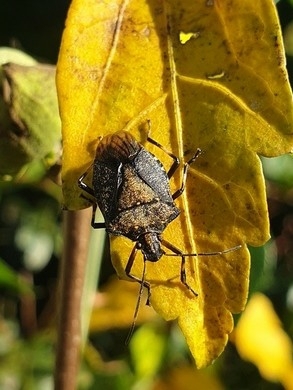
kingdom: Animalia
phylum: Arthropoda
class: Insecta
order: Hemiptera
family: Pentatomidae
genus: Halyomorpha
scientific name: Halyomorpha halys
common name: Brown marmorated stink bug
